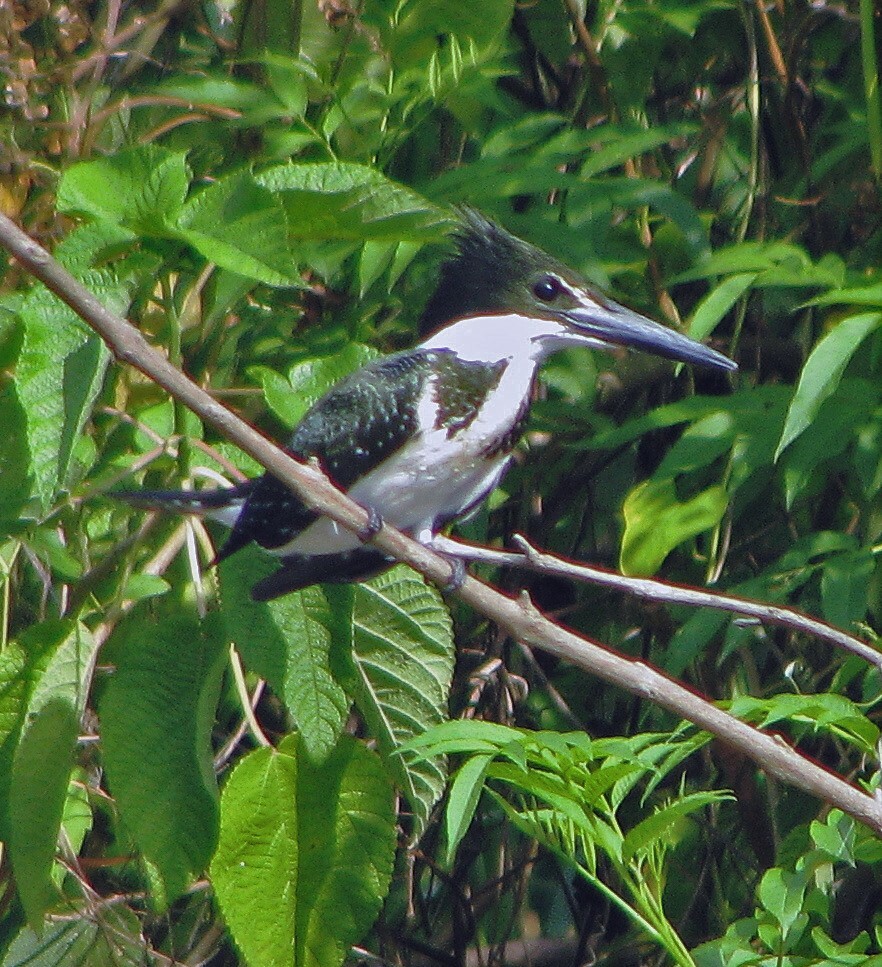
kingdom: Animalia
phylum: Chordata
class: Aves
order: Coraciiformes
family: Alcedinidae
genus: Chloroceryle
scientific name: Chloroceryle amazona
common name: Amazon kingfisher
